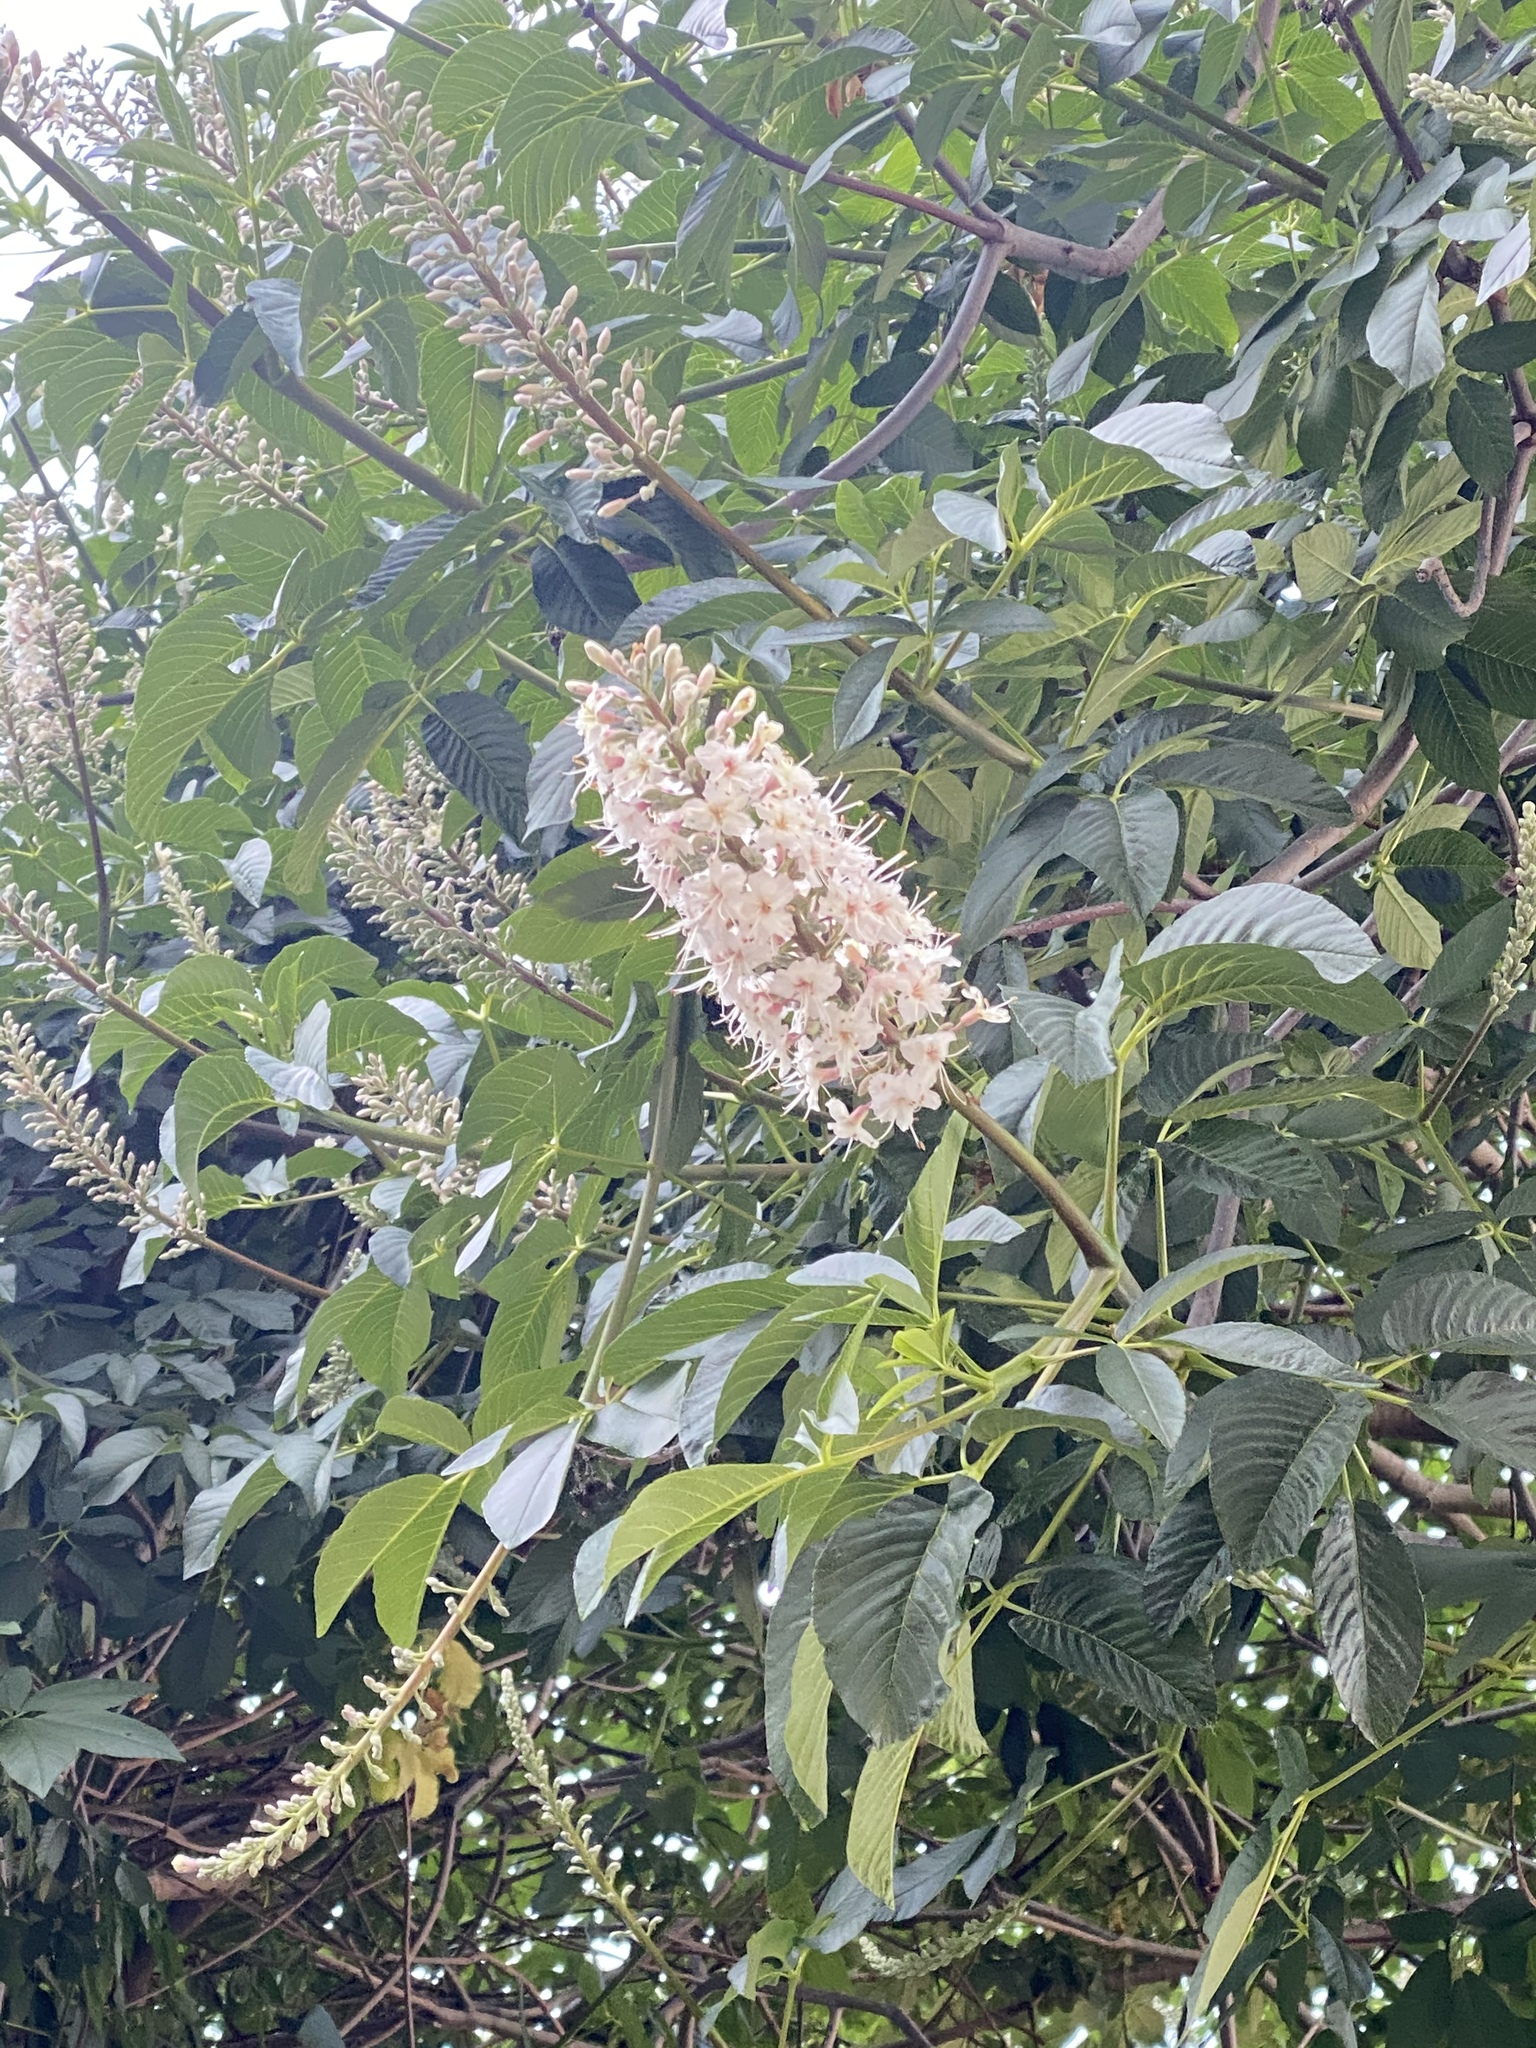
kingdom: Plantae
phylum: Tracheophyta
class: Magnoliopsida
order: Sapindales
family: Sapindaceae
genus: Aesculus
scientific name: Aesculus californica
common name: California buckeye
